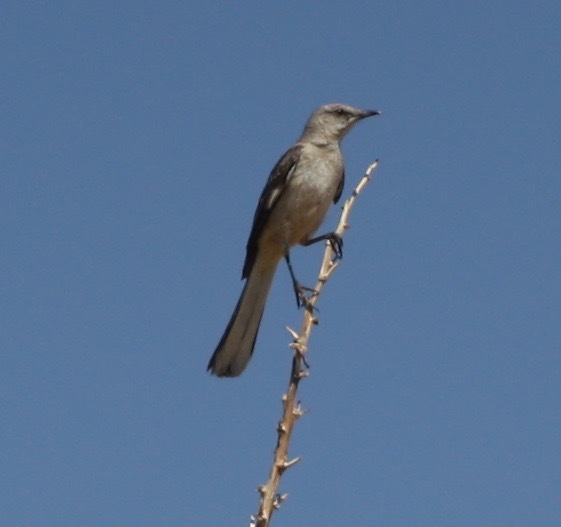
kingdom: Animalia
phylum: Chordata
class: Aves
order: Passeriformes
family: Mimidae
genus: Mimus
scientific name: Mimus polyglottos
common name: Northern mockingbird
